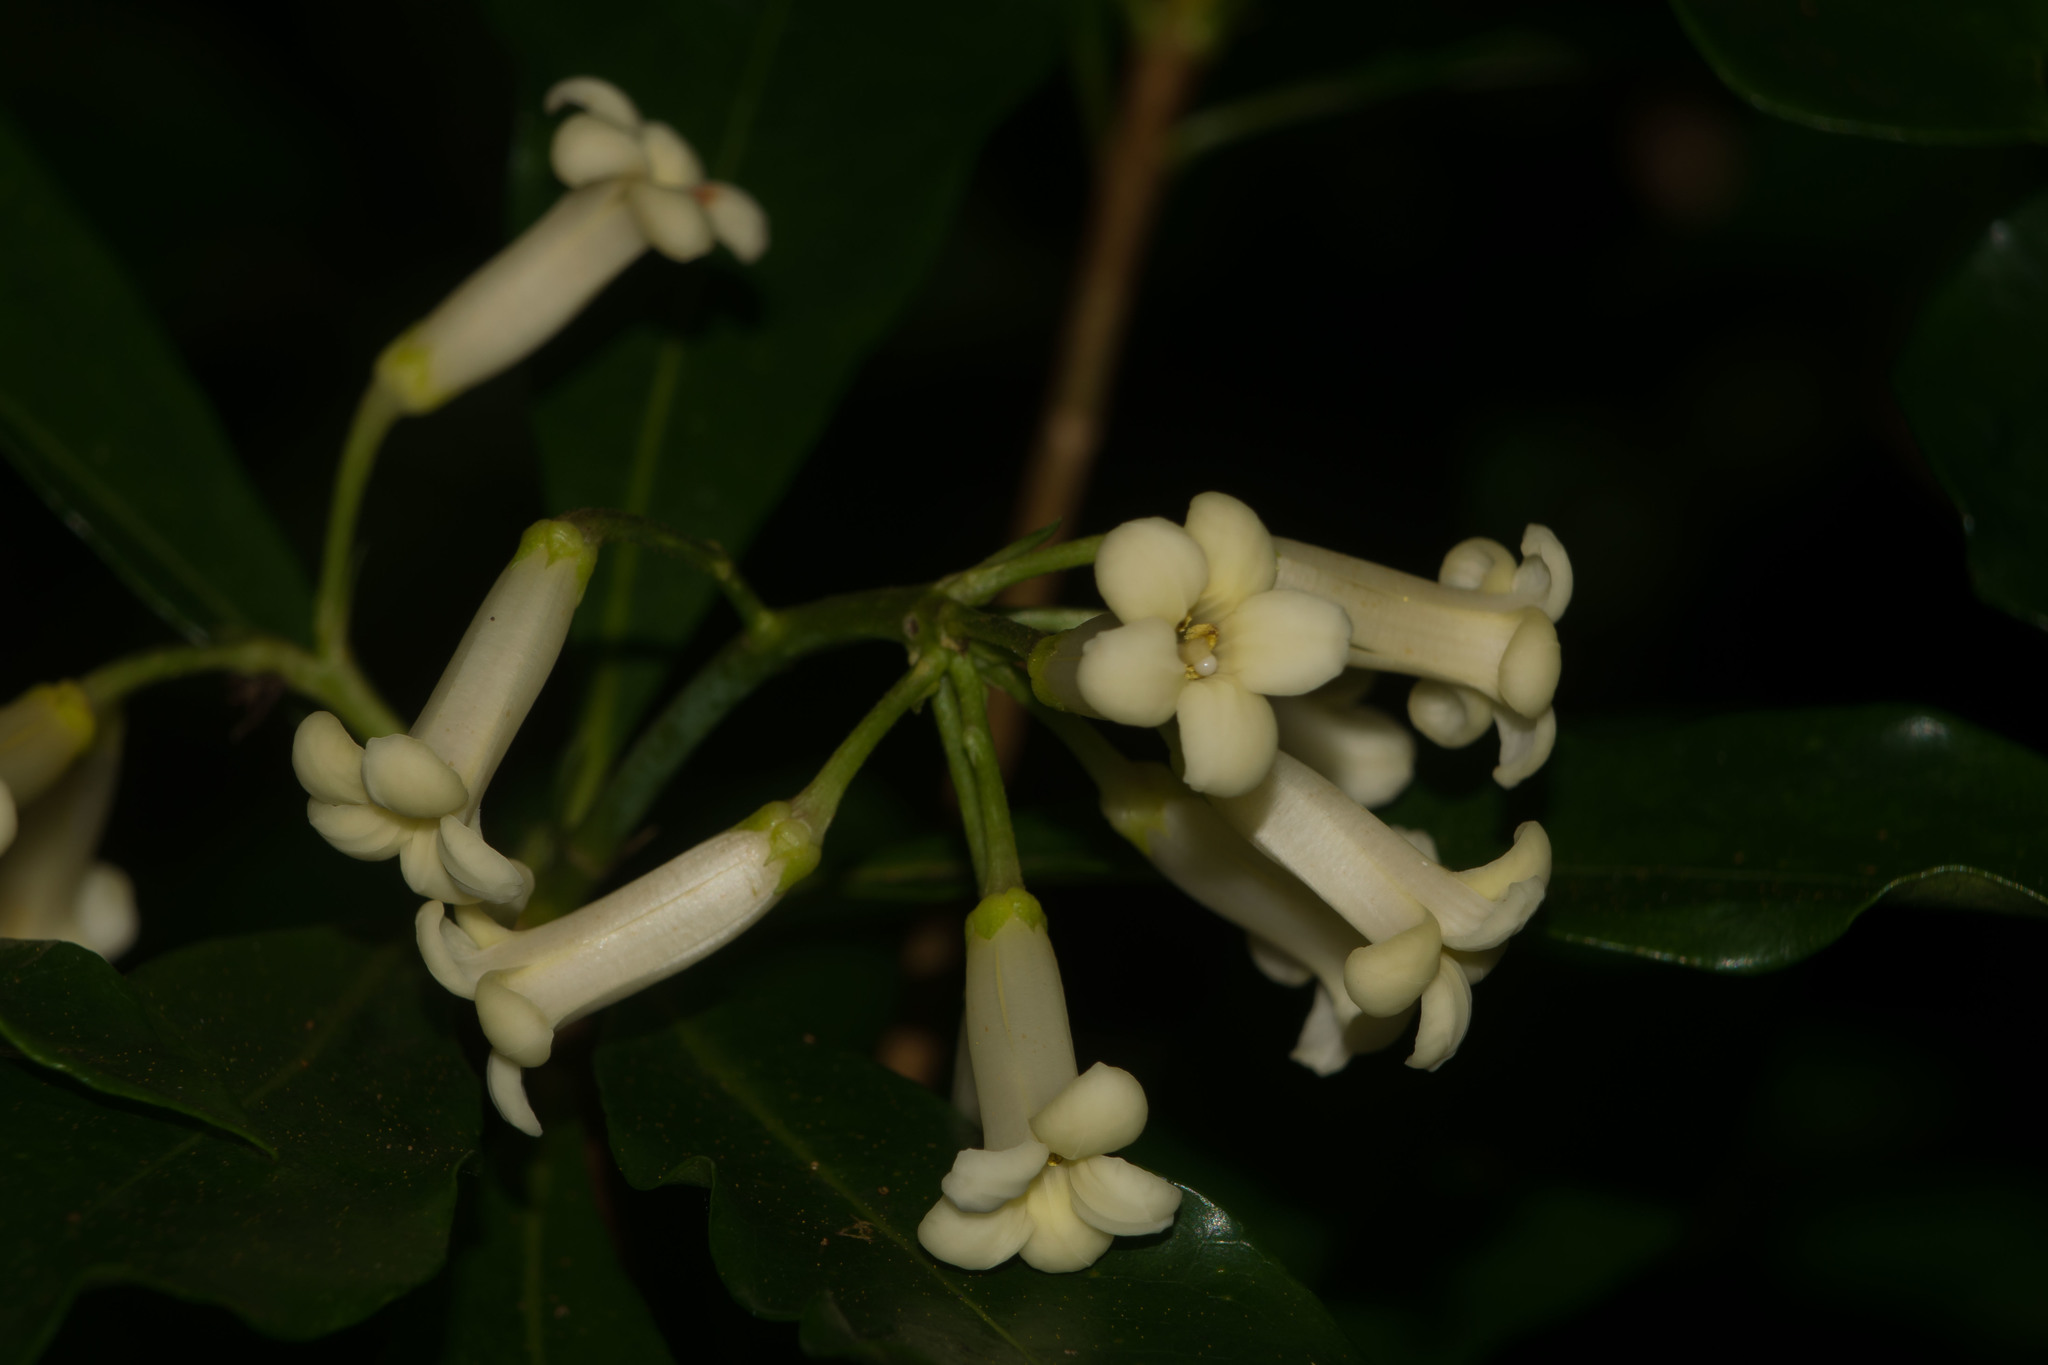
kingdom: Plantae
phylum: Tracheophyta
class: Magnoliopsida
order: Apiales
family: Pittosporaceae
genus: Pittosporum
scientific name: Pittosporum glabrum
